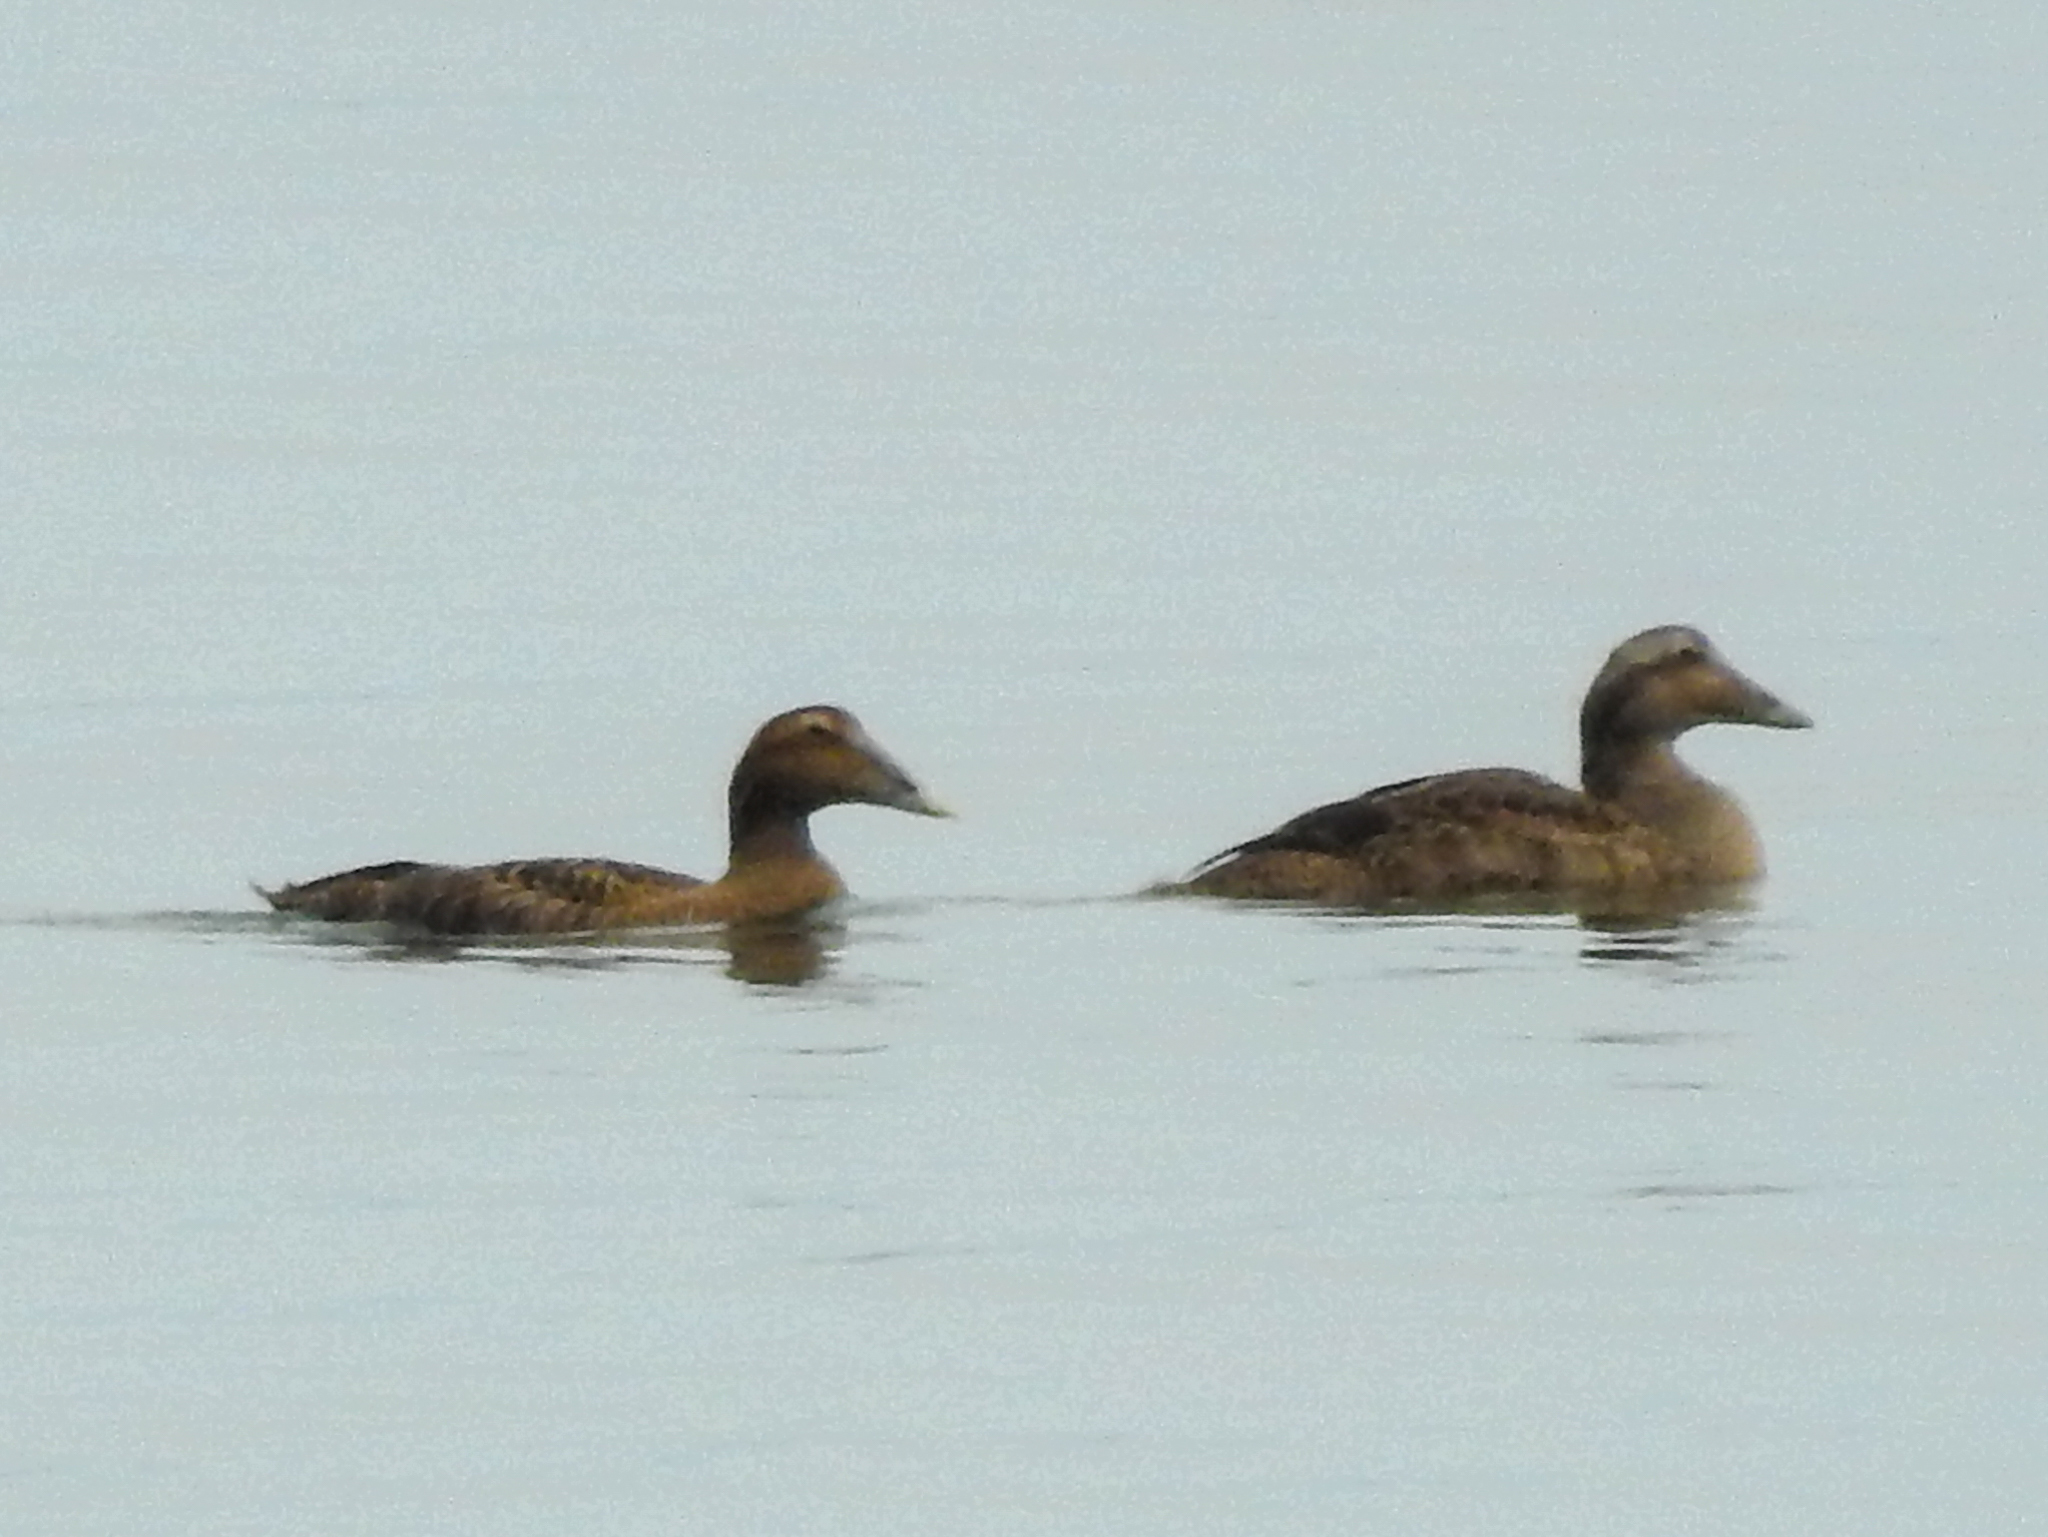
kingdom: Animalia
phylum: Chordata
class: Aves
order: Anseriformes
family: Anatidae
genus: Somateria
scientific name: Somateria mollissima
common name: Common eider
